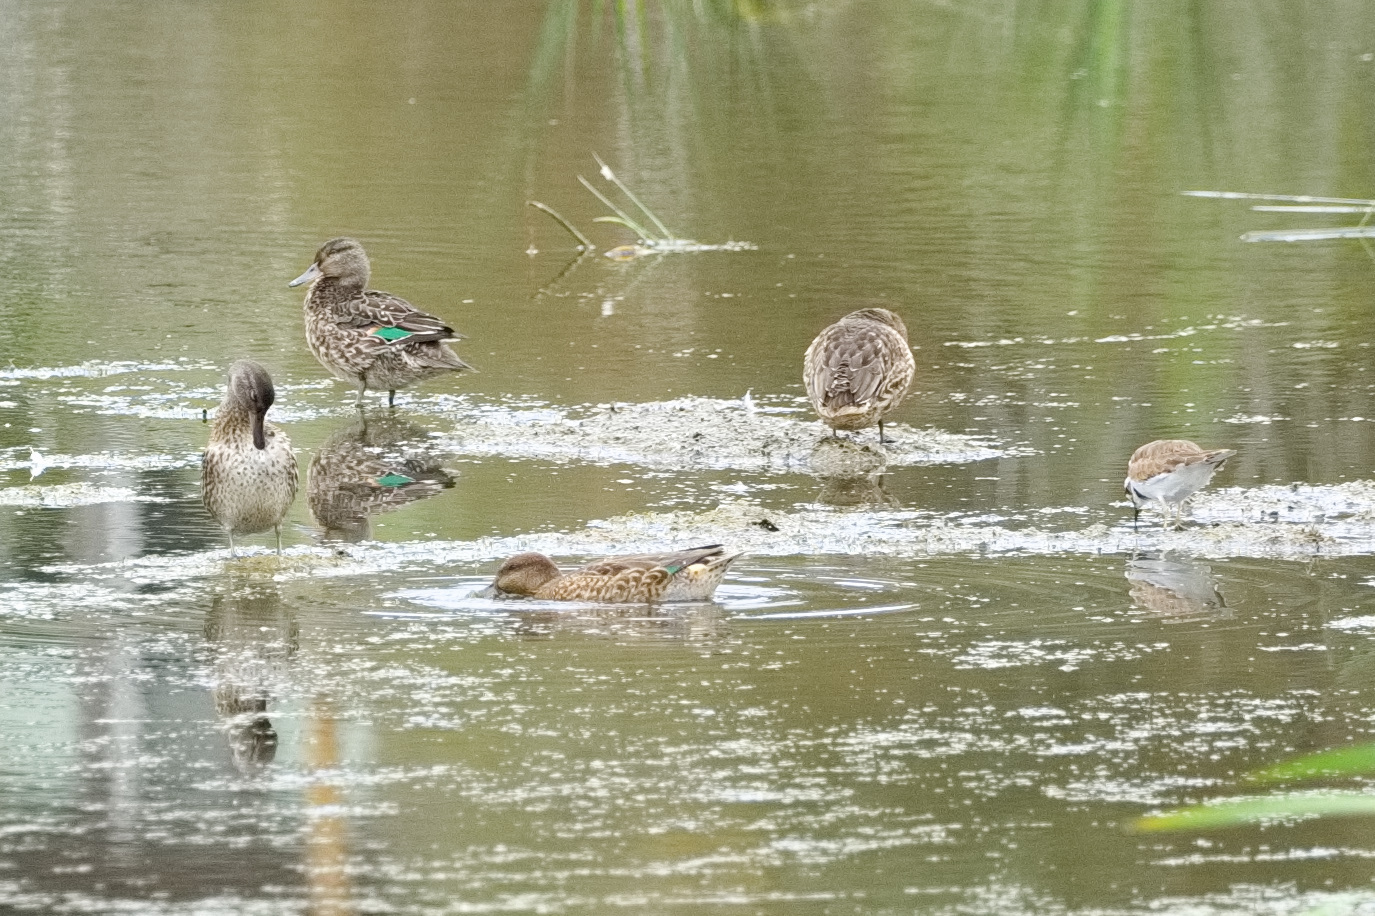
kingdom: Animalia
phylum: Chordata
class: Aves
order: Anseriformes
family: Anatidae
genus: Anas
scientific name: Anas crecca
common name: Eurasian teal
